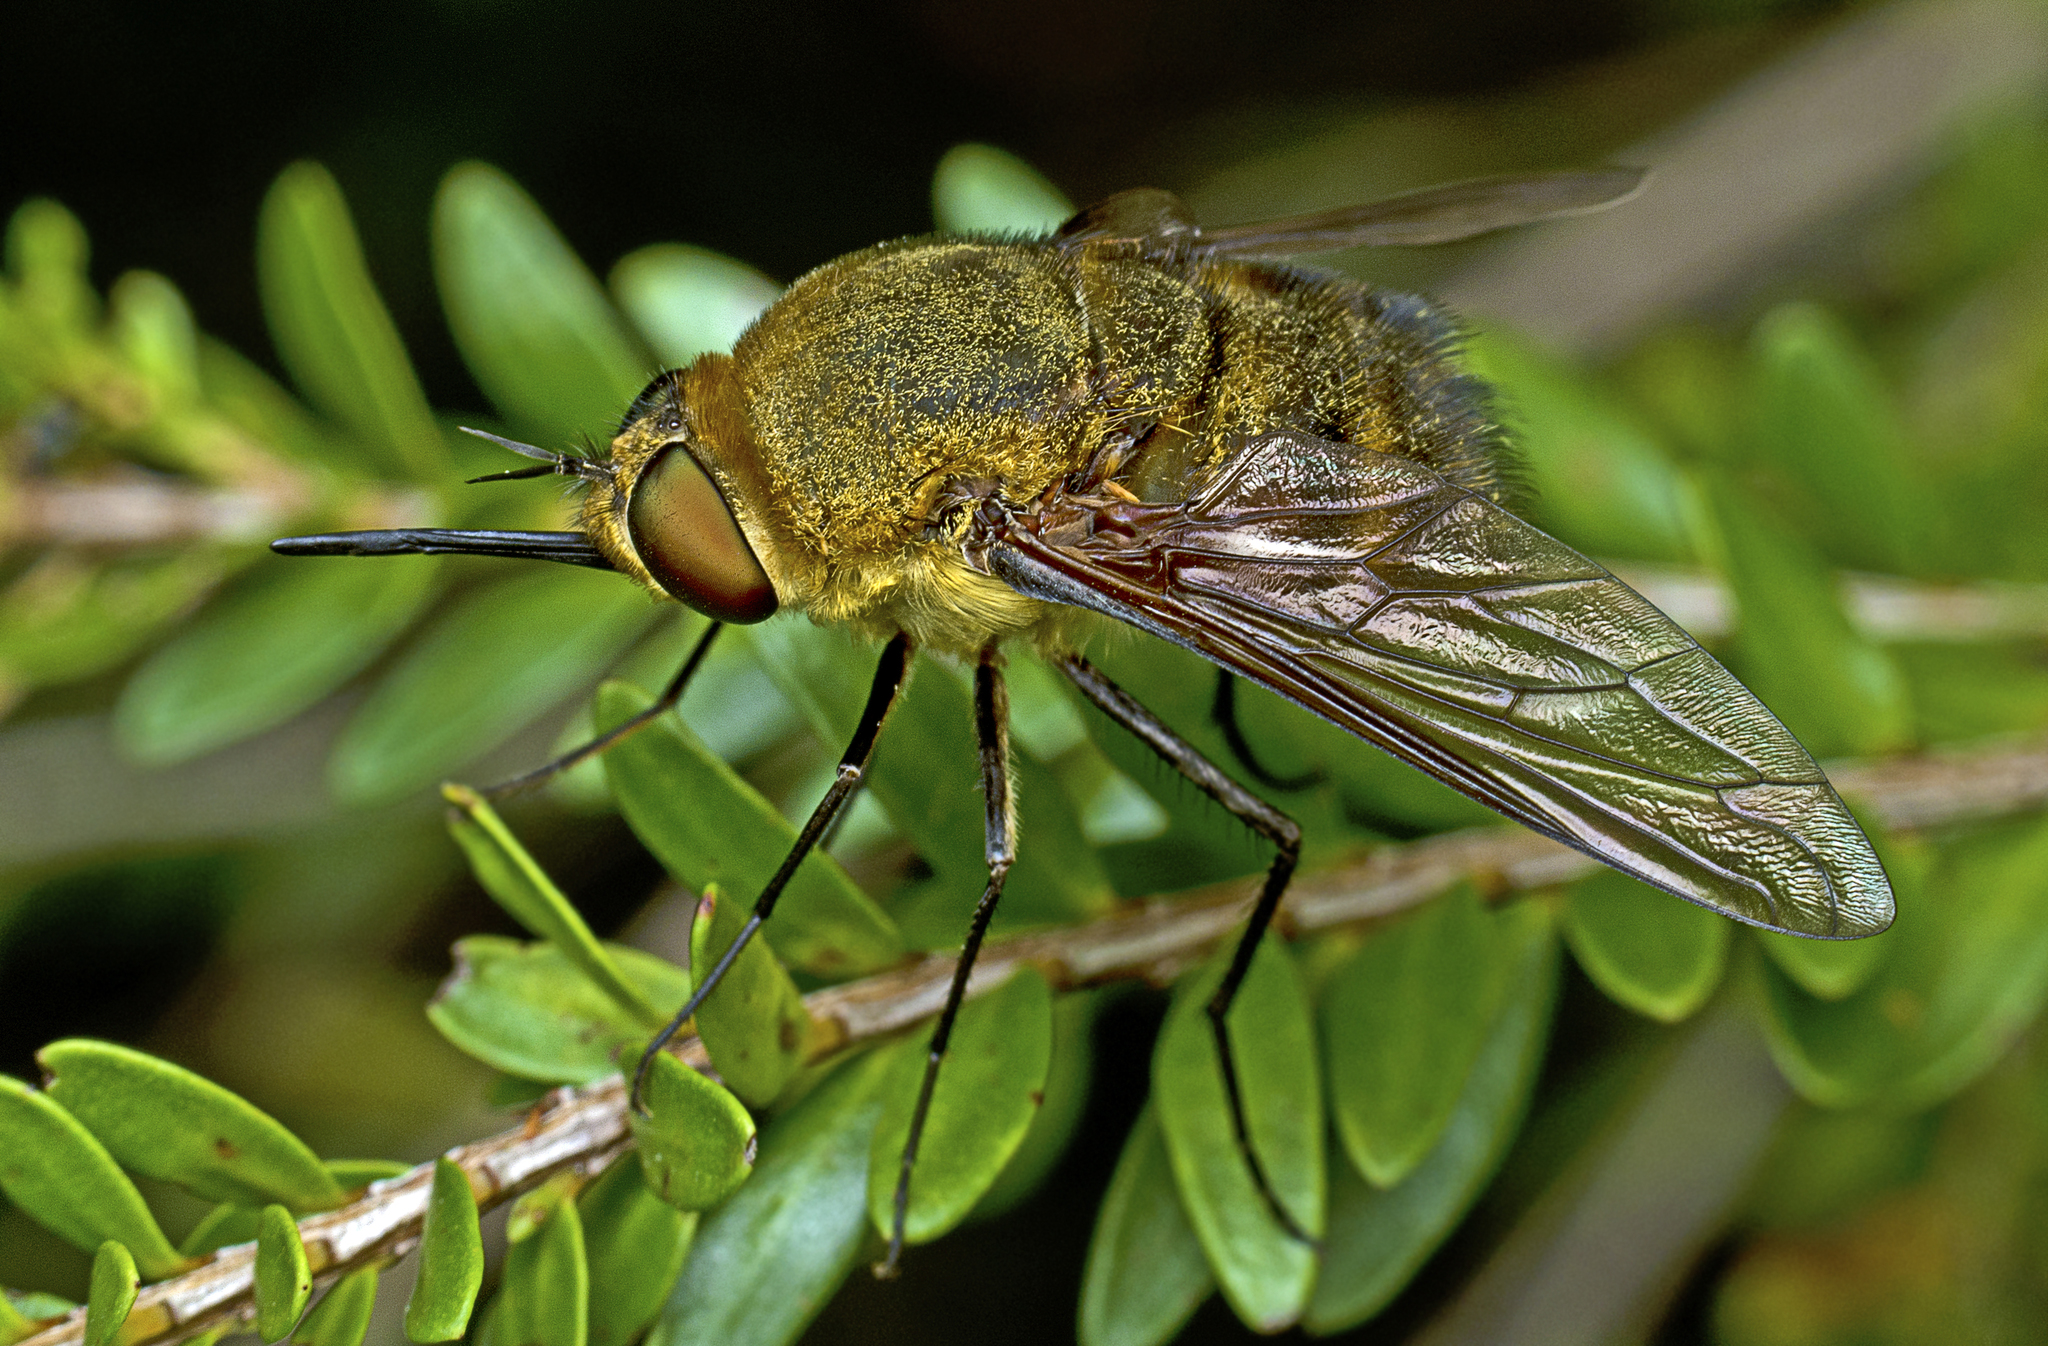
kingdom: Animalia
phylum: Arthropoda
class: Insecta
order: Diptera
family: Bombyliidae
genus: Eristalopsis
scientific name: Eristalopsis wrightae
